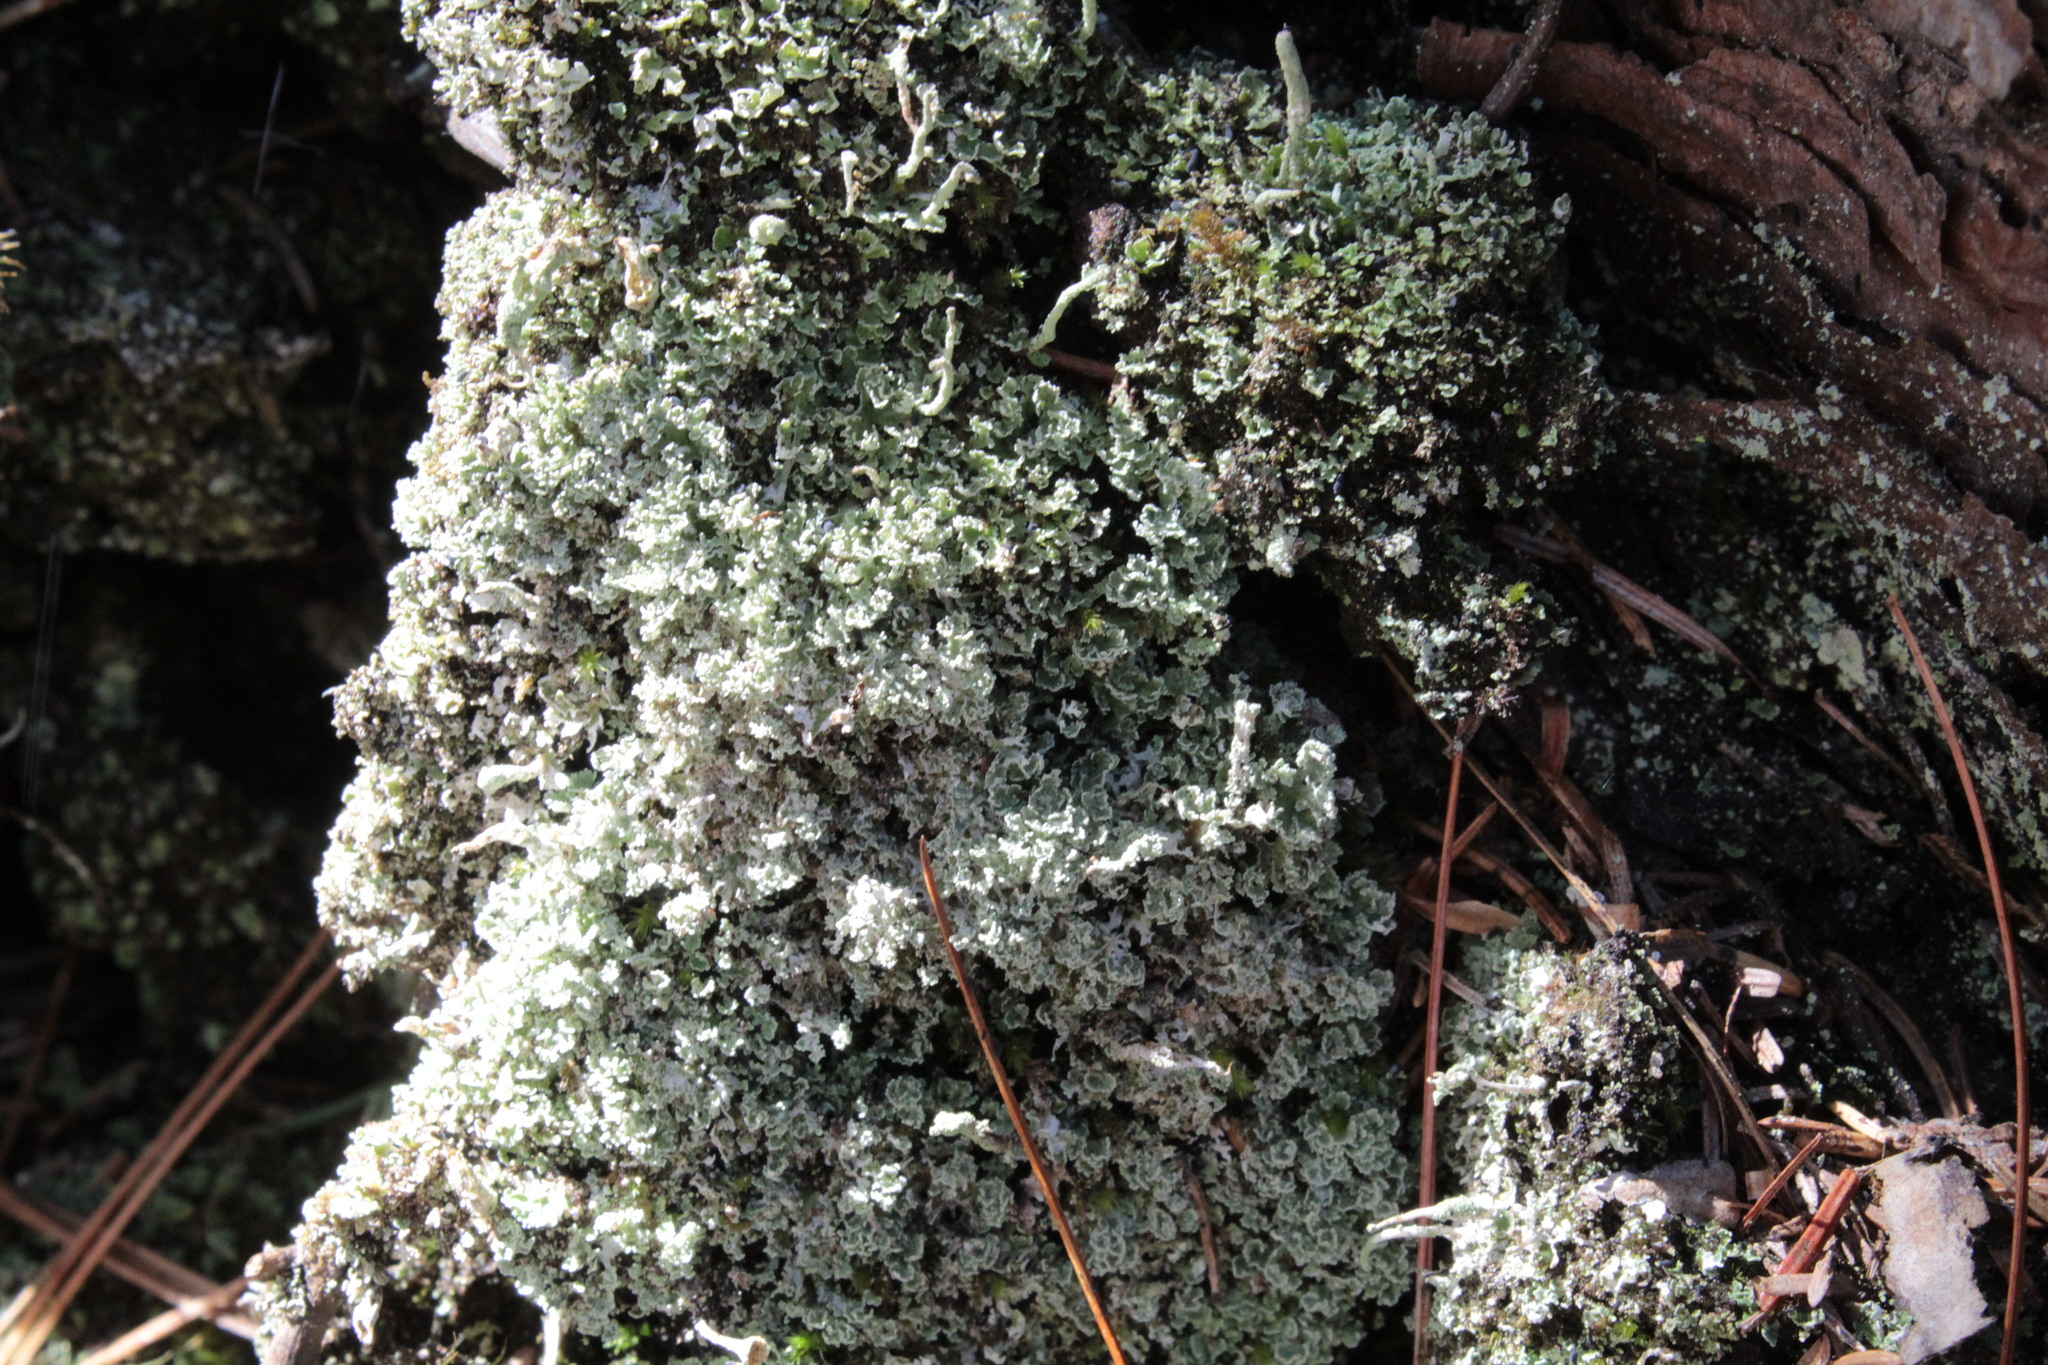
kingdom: Fungi
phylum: Ascomycota
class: Lecanoromycetes
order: Lecanorales
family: Cladoniaceae
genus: Cladonia
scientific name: Cladonia coniocraea
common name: Common powderhorn
